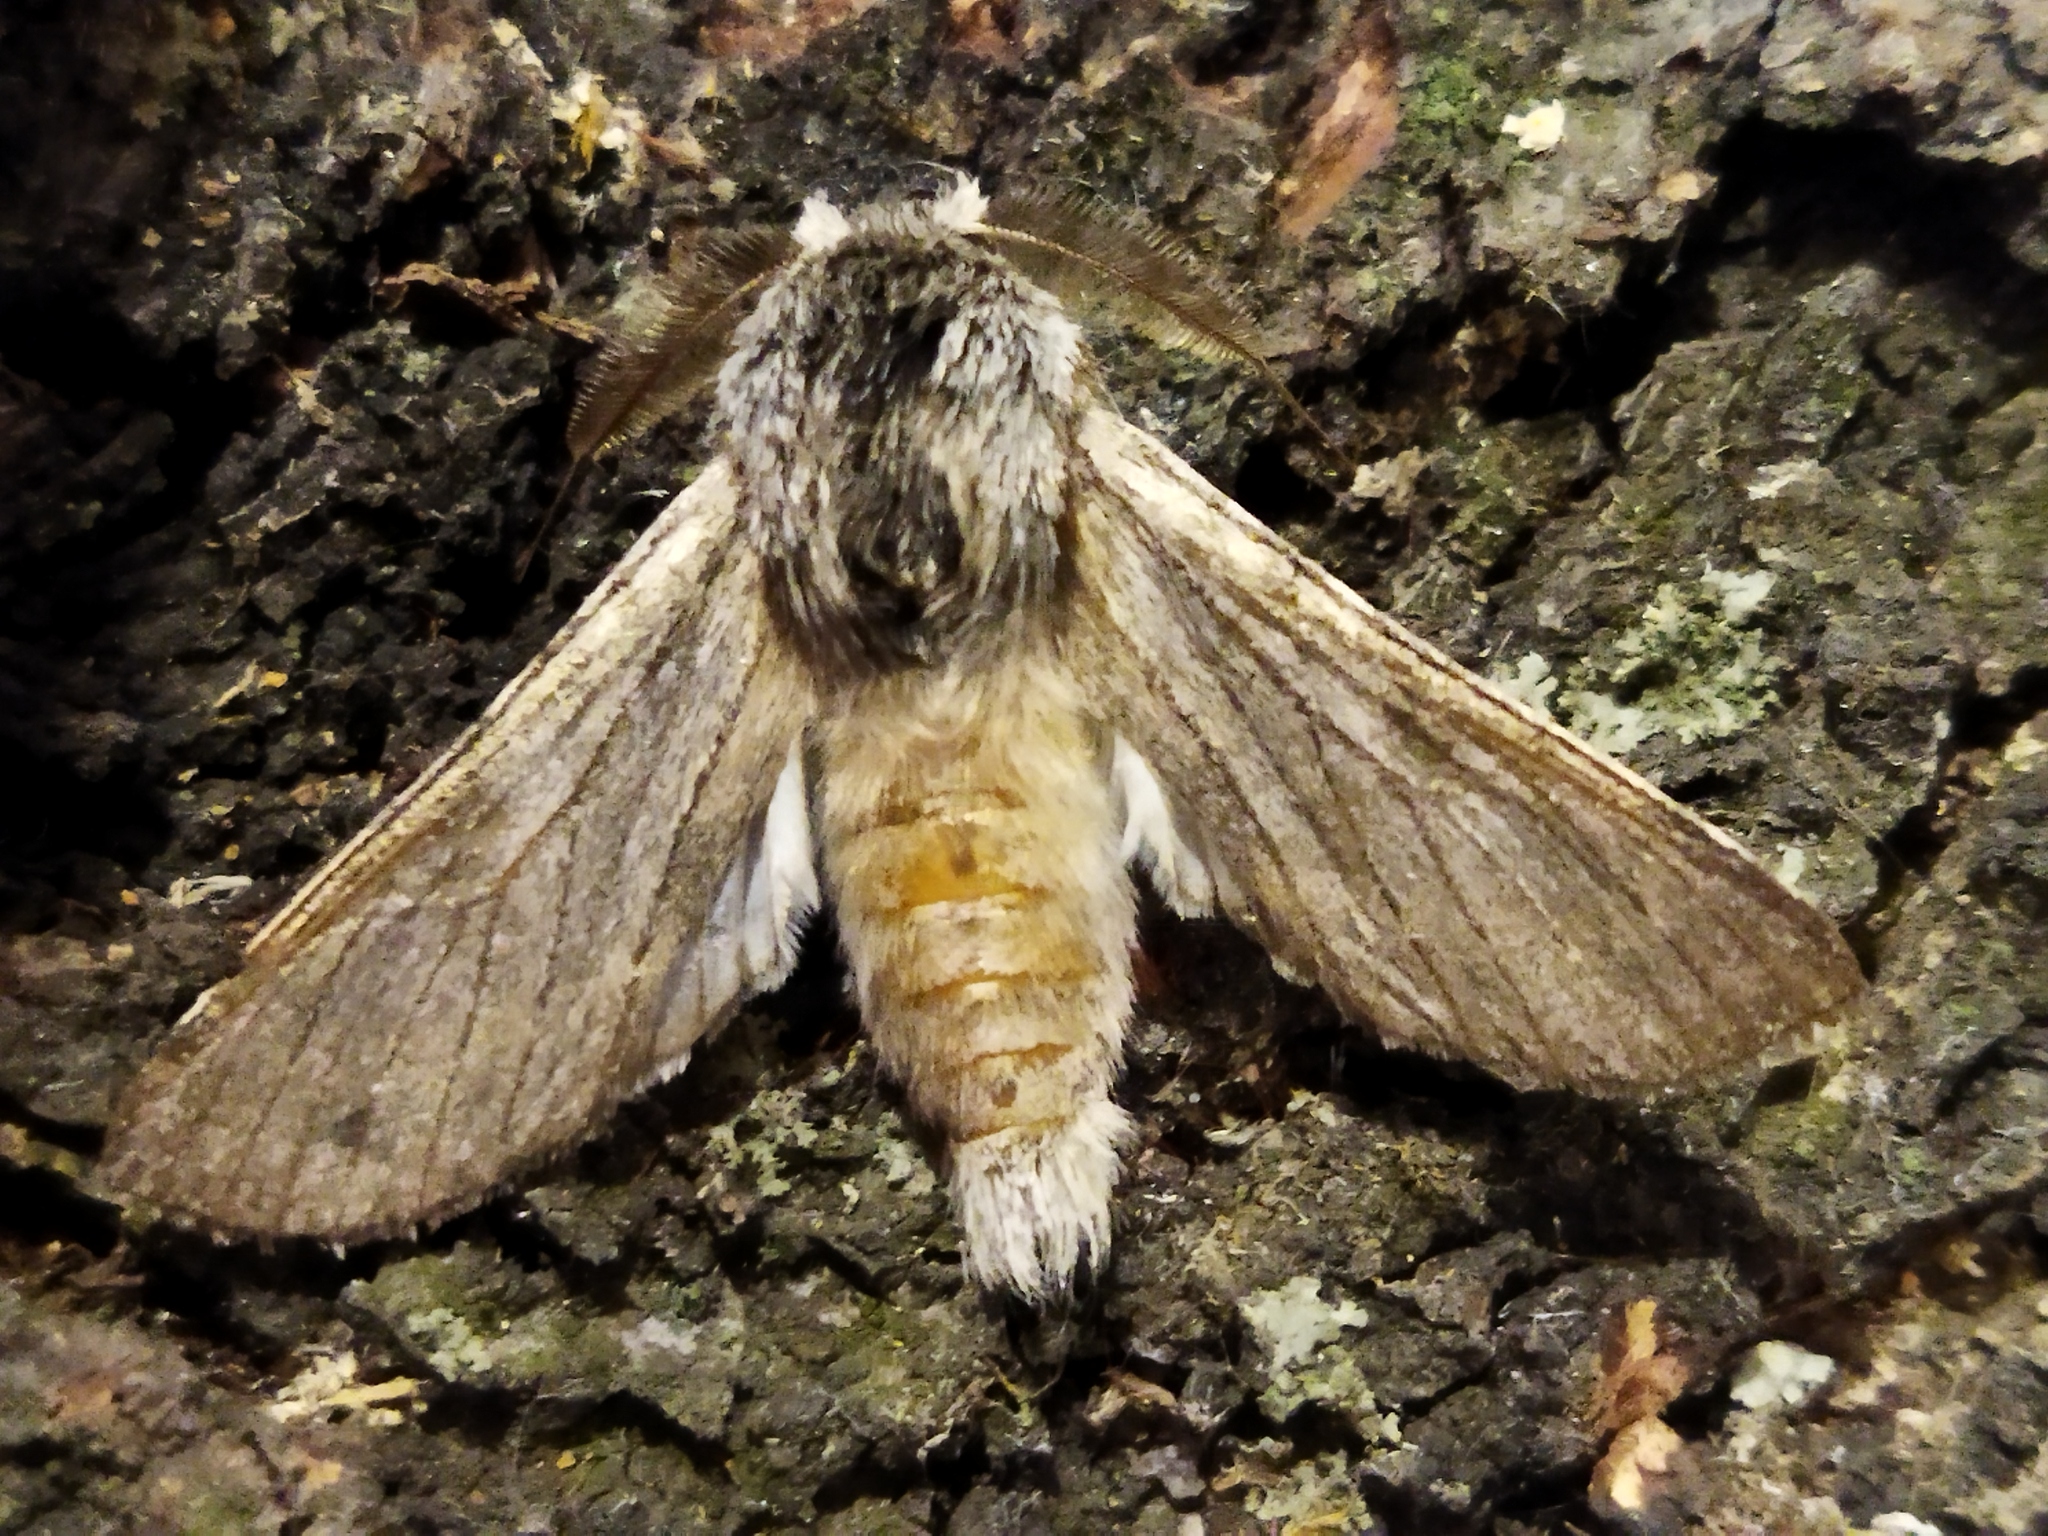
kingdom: Animalia
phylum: Arthropoda
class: Insecta
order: Lepidoptera
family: Notodontidae
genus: Dicranura
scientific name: Dicranura ulmi
